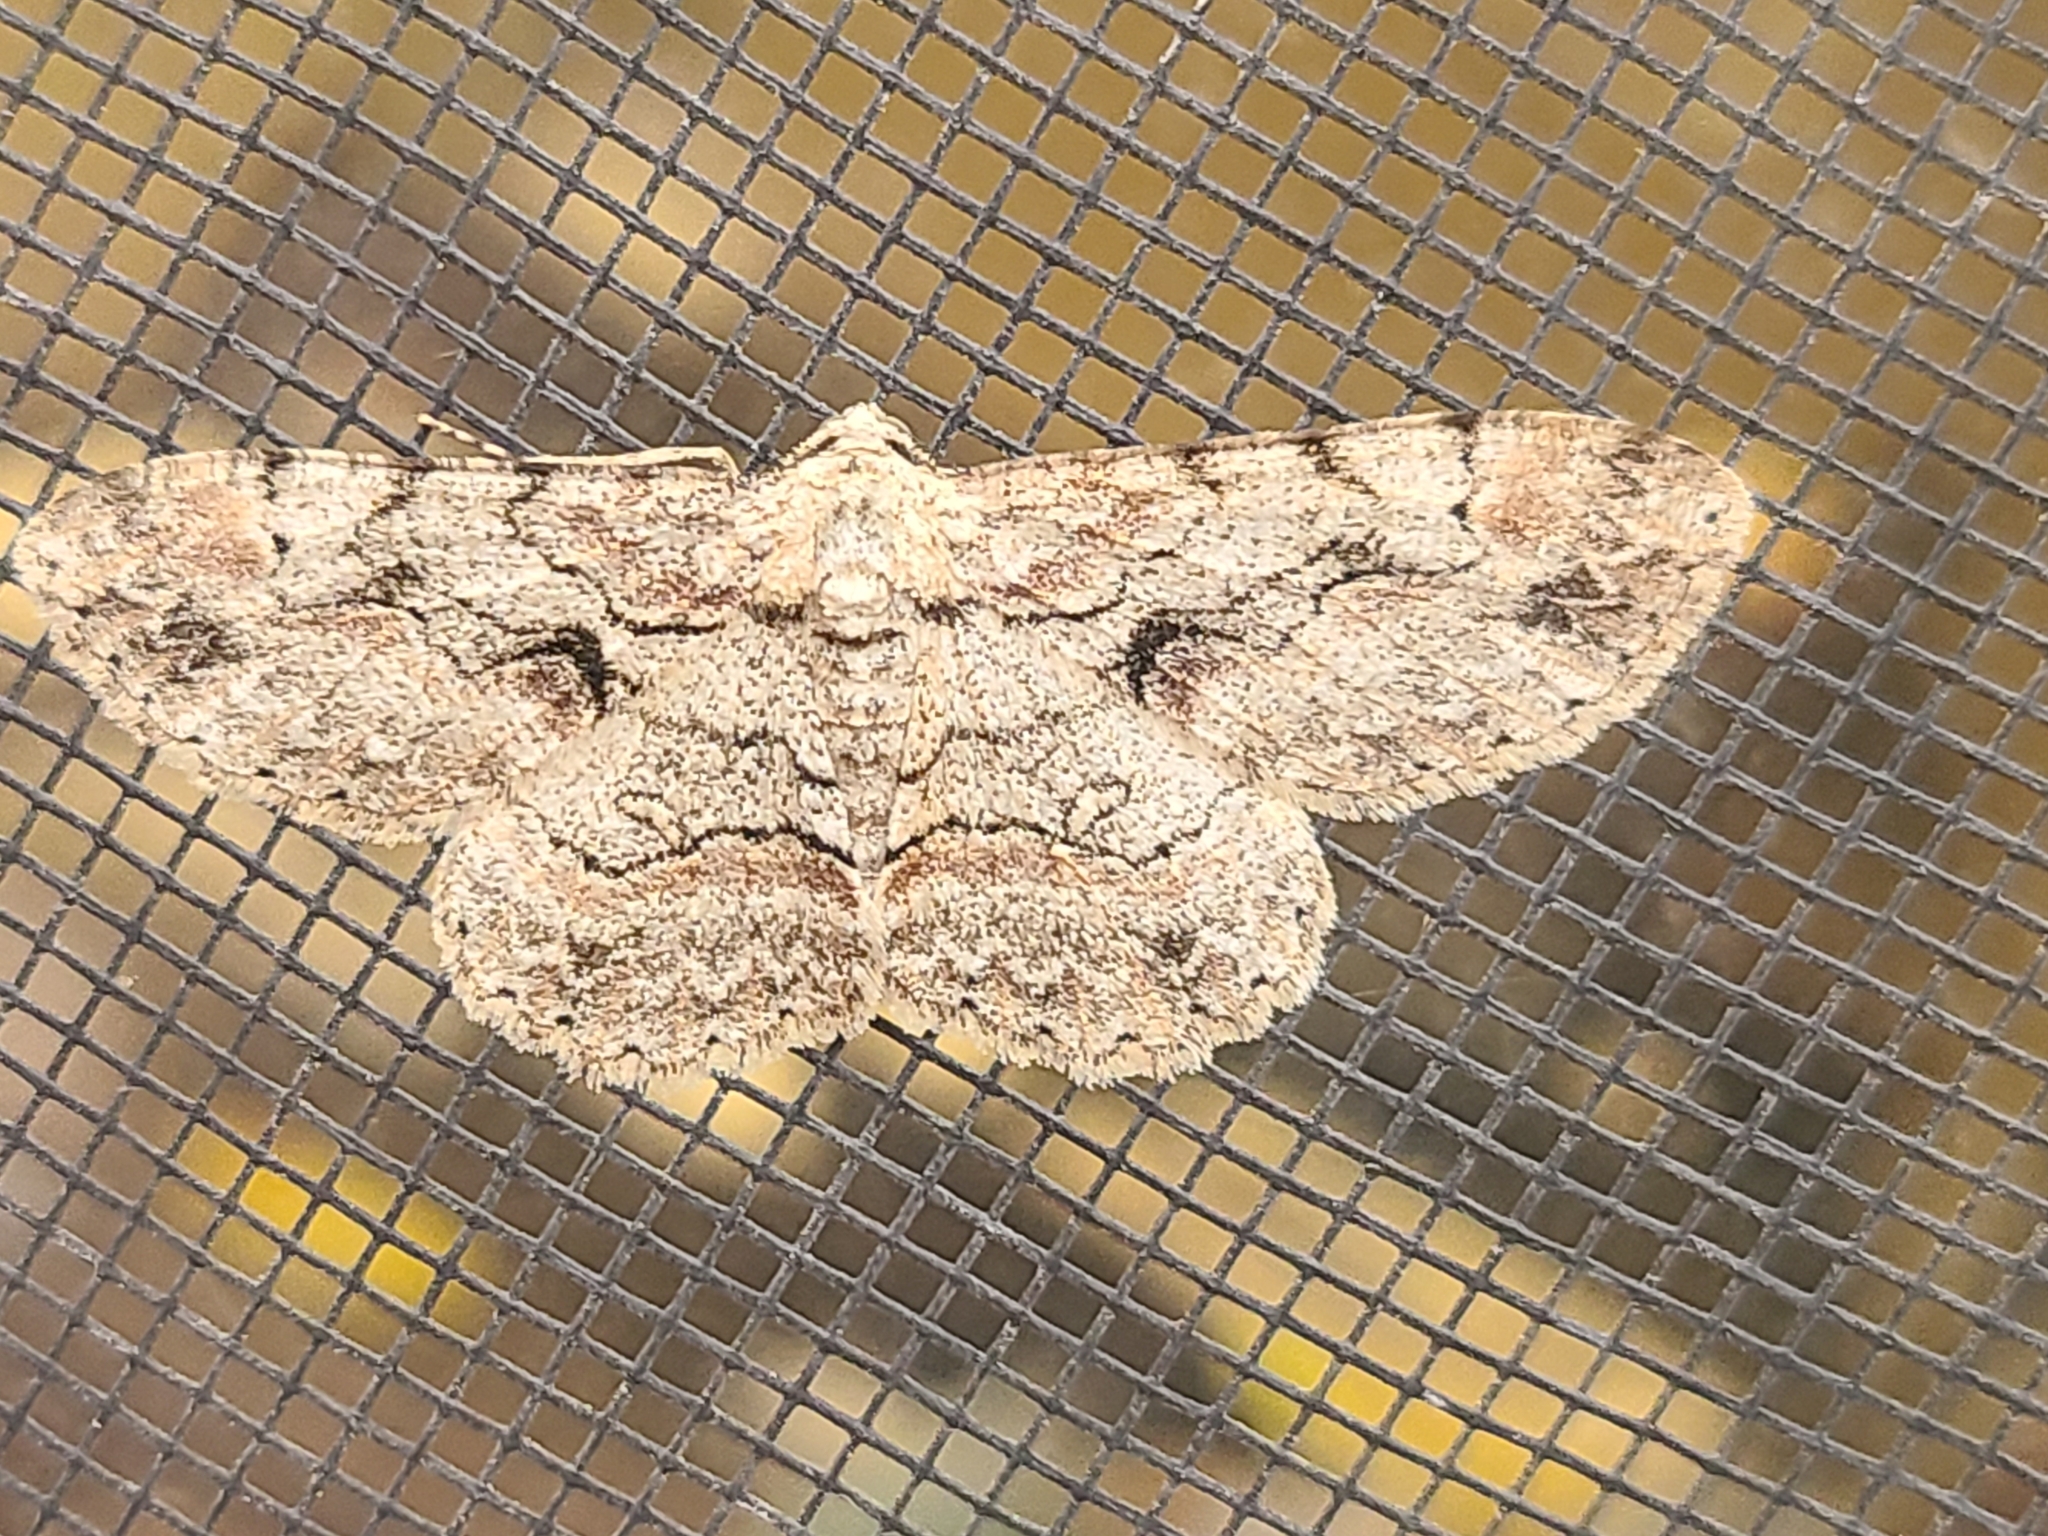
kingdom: Animalia
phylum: Arthropoda
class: Insecta
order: Lepidoptera
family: Geometridae
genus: Iridopsis
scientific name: Iridopsis defectaria
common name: Brown-shaded gray
